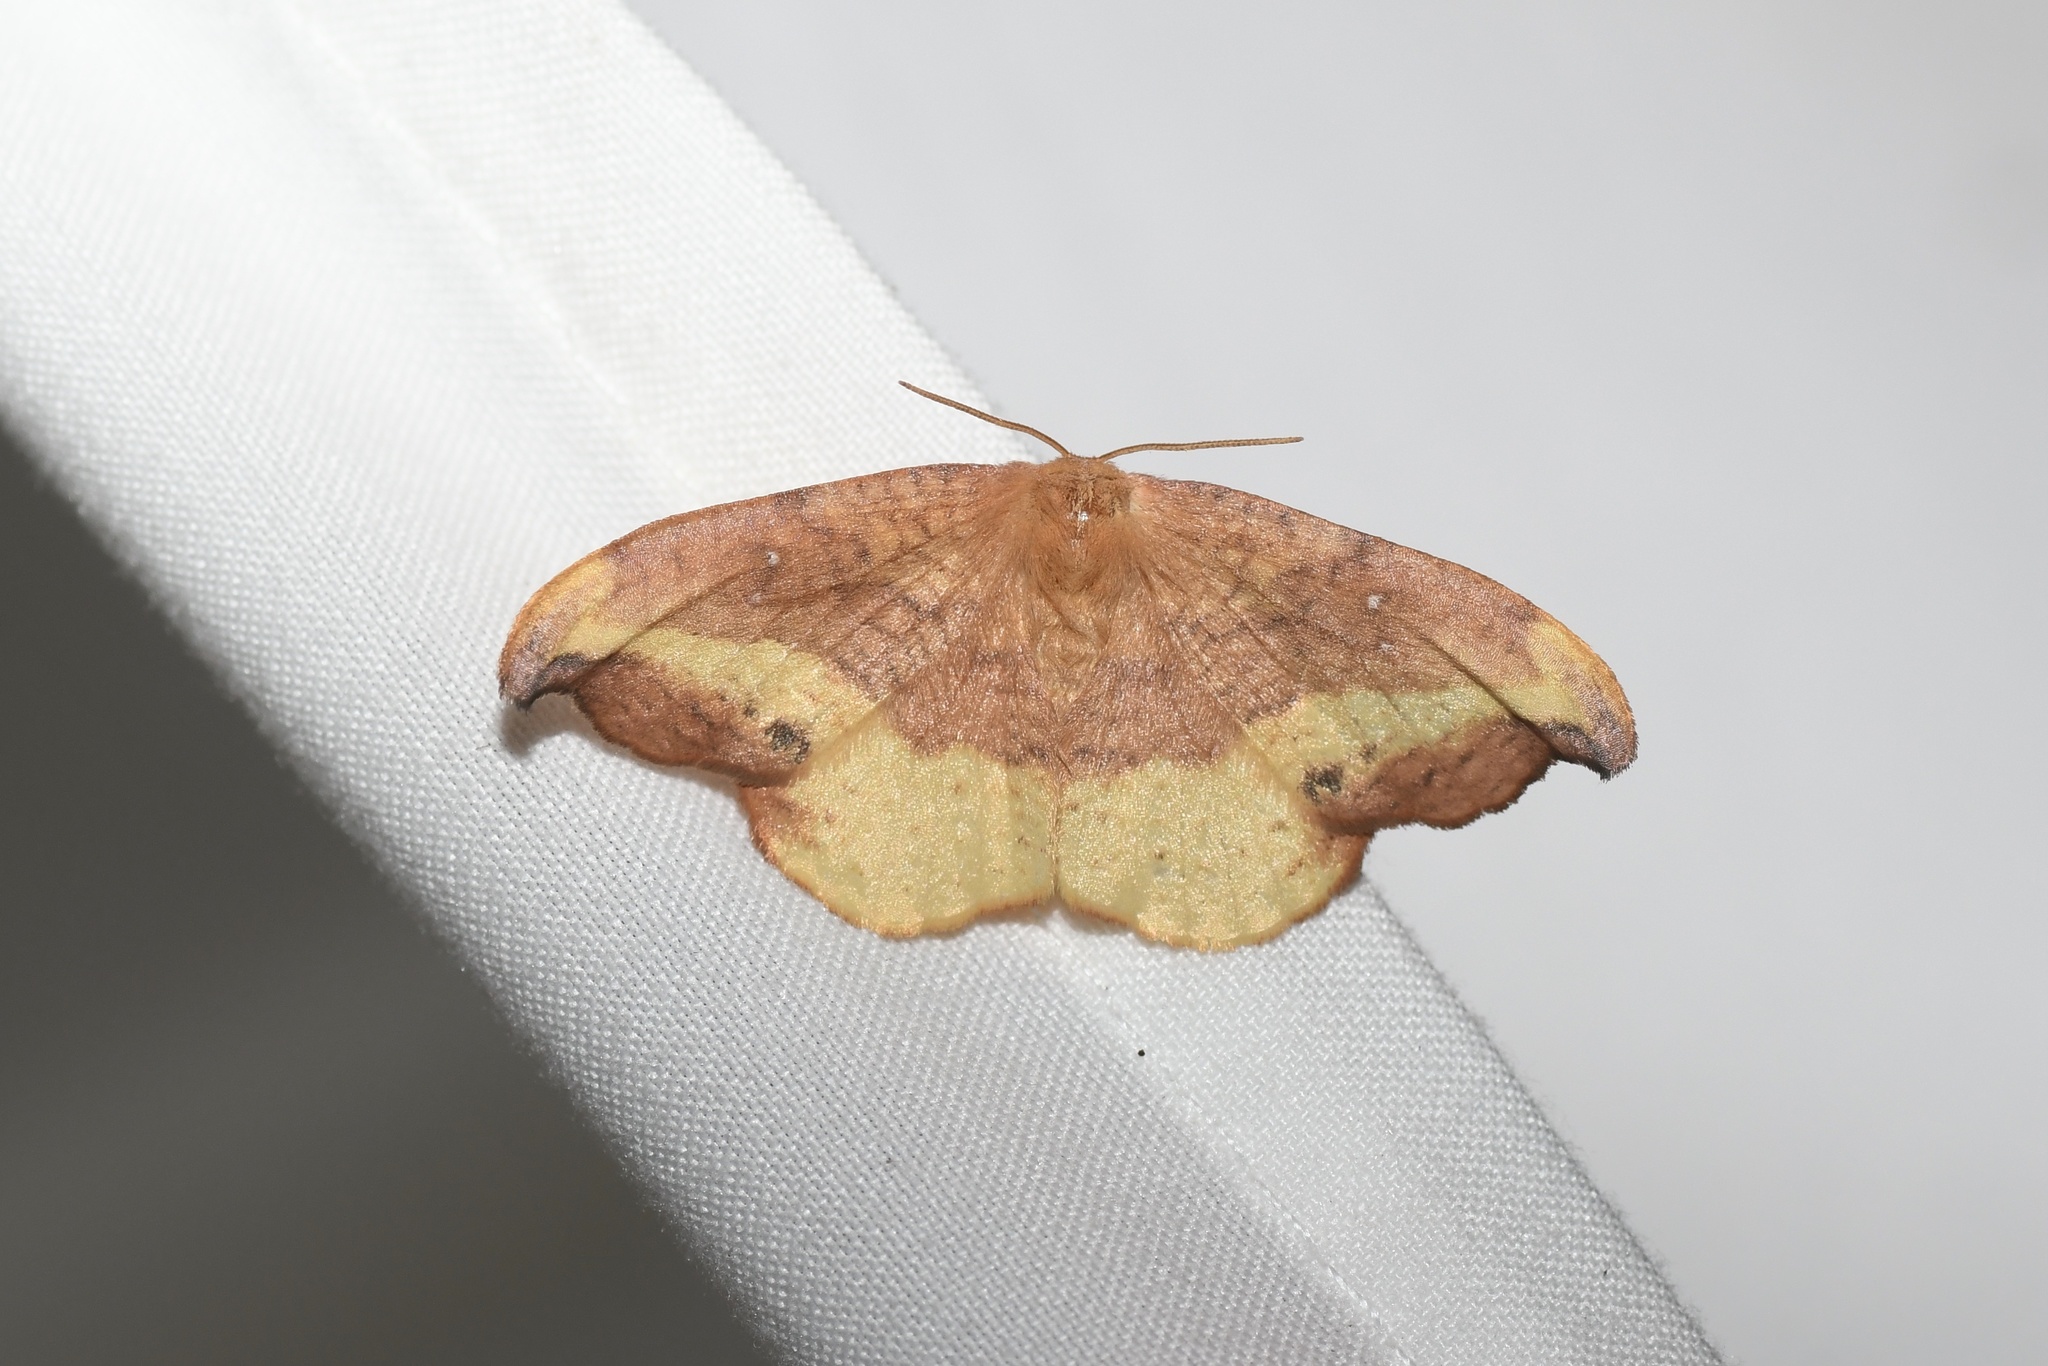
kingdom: Animalia
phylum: Arthropoda
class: Insecta
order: Lepidoptera
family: Drepanidae
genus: Oreta
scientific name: Oreta rosea
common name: Rose hooktip
